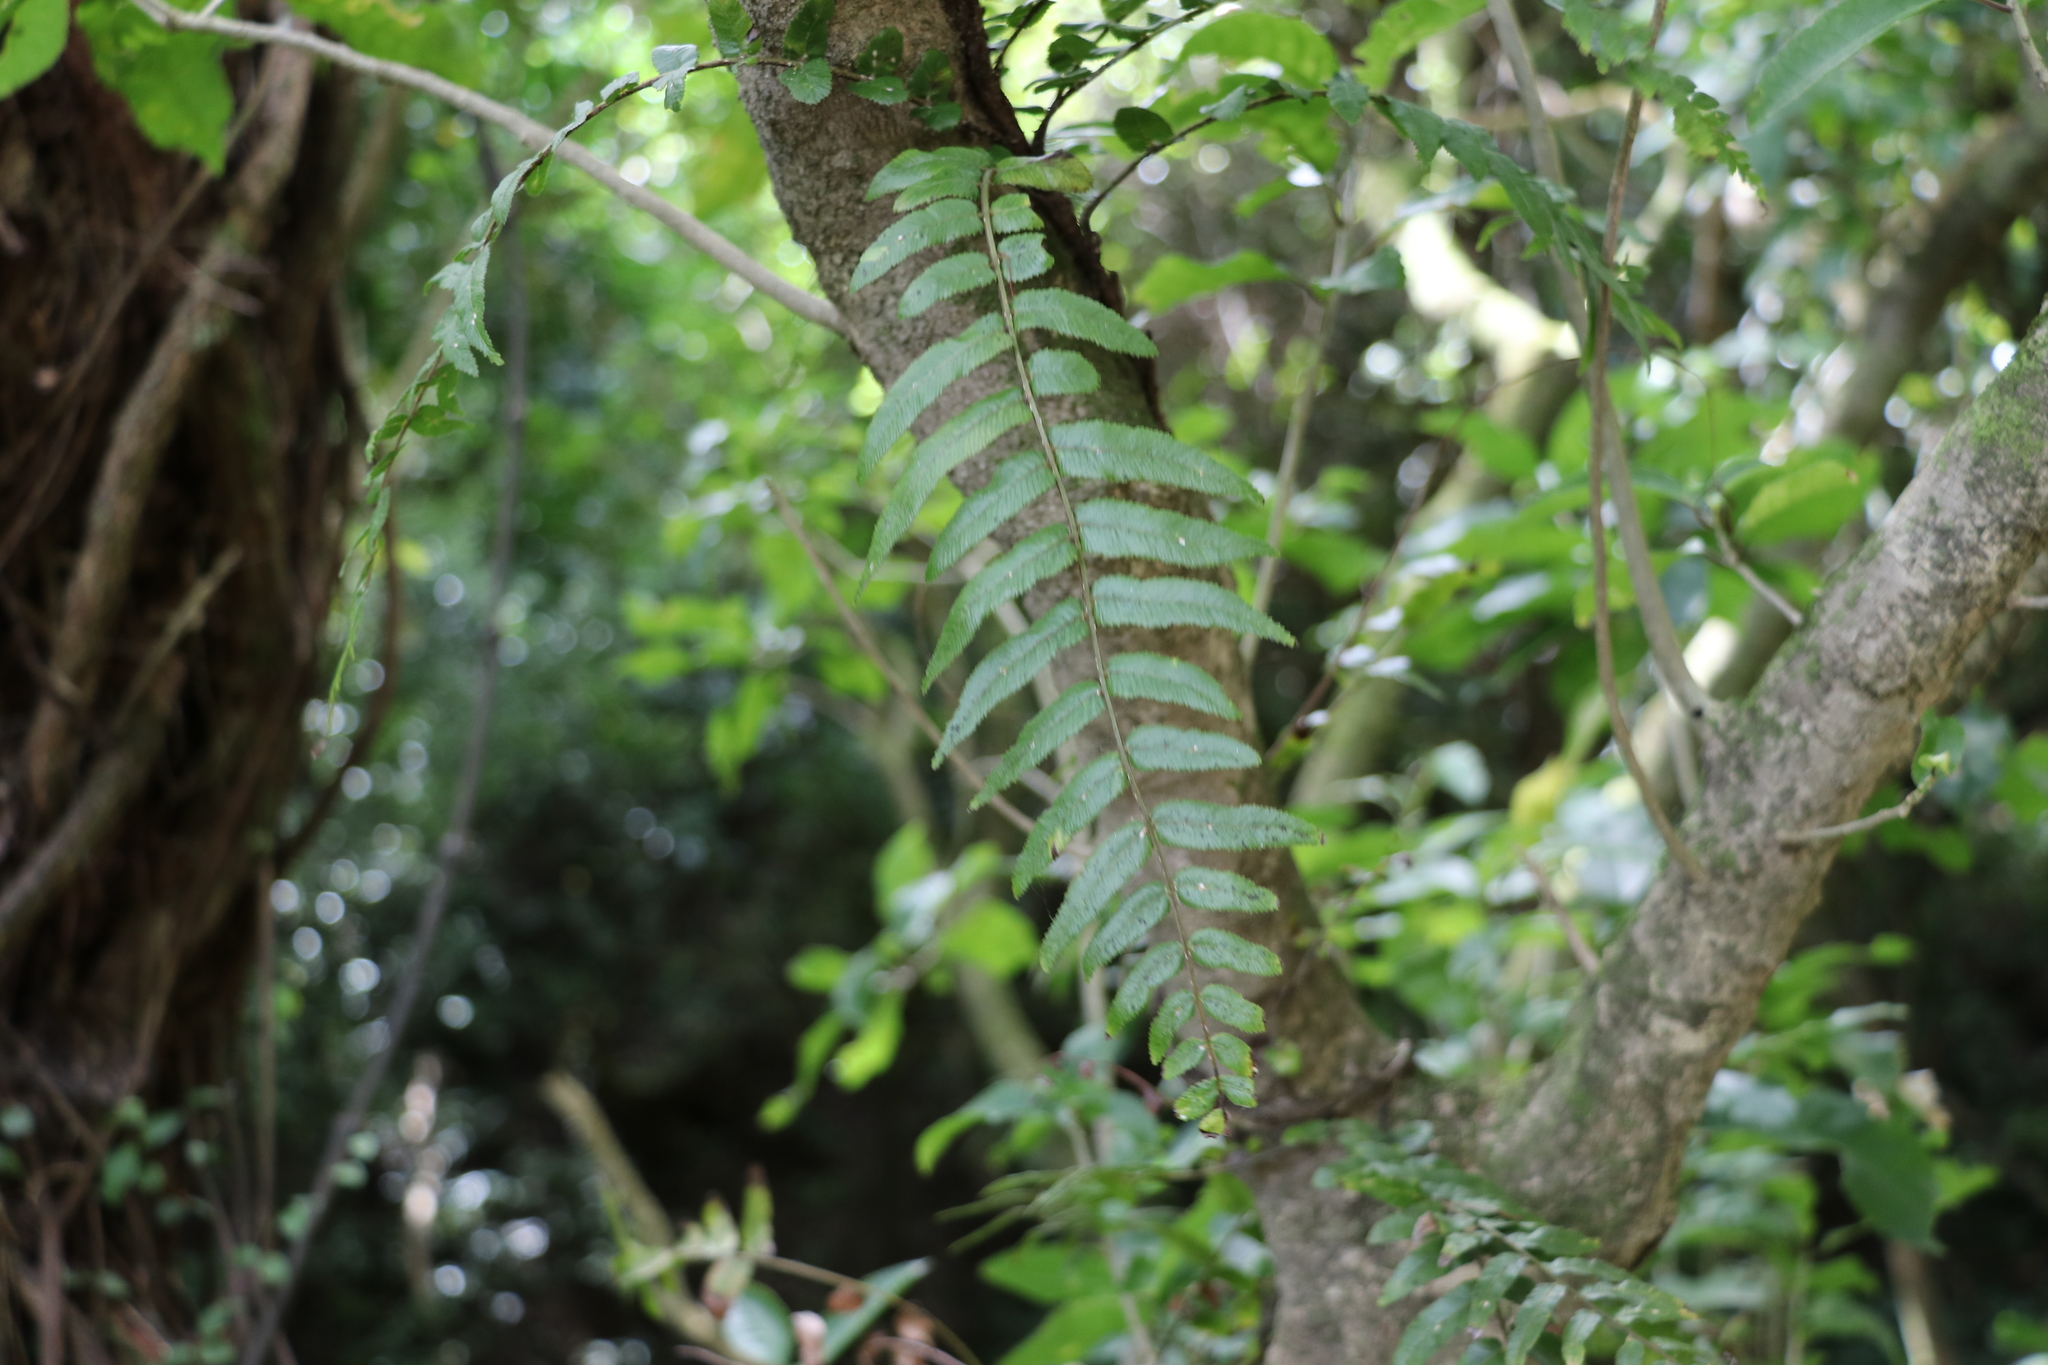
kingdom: Plantae
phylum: Tracheophyta
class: Polypodiopsida
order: Polypodiales
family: Blechnaceae
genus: Icarus
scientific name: Icarus filiformis
